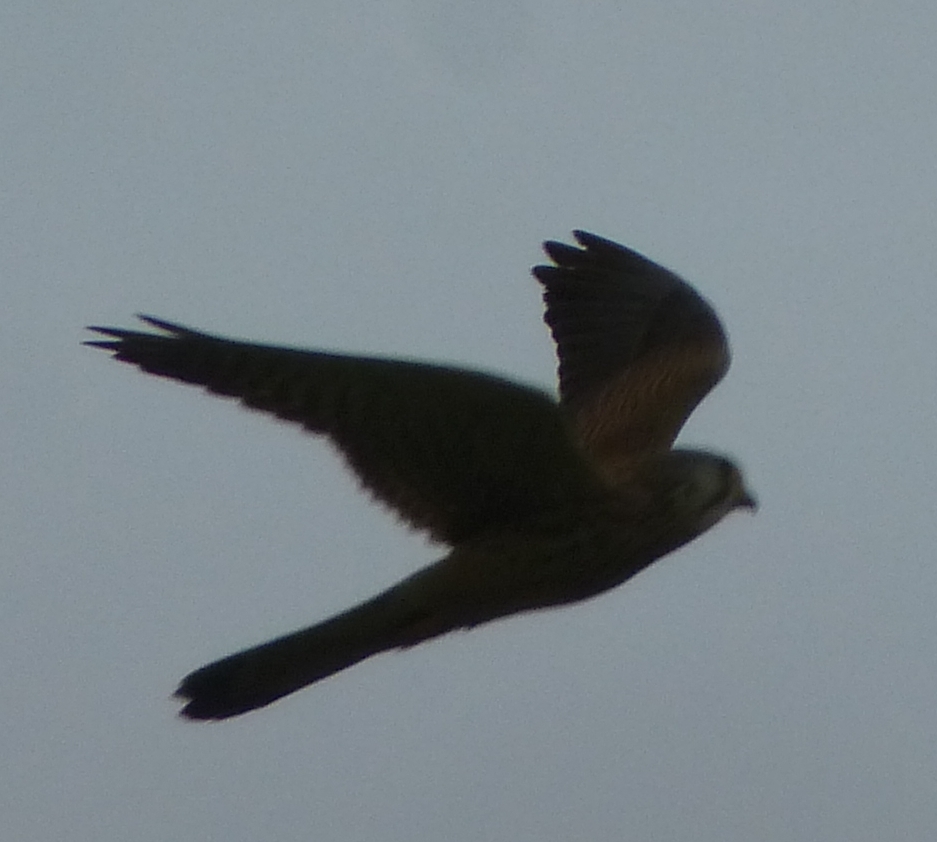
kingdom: Animalia
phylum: Chordata
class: Aves
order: Falconiformes
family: Falconidae
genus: Falco
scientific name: Falco tinnunculus
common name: Common kestrel
